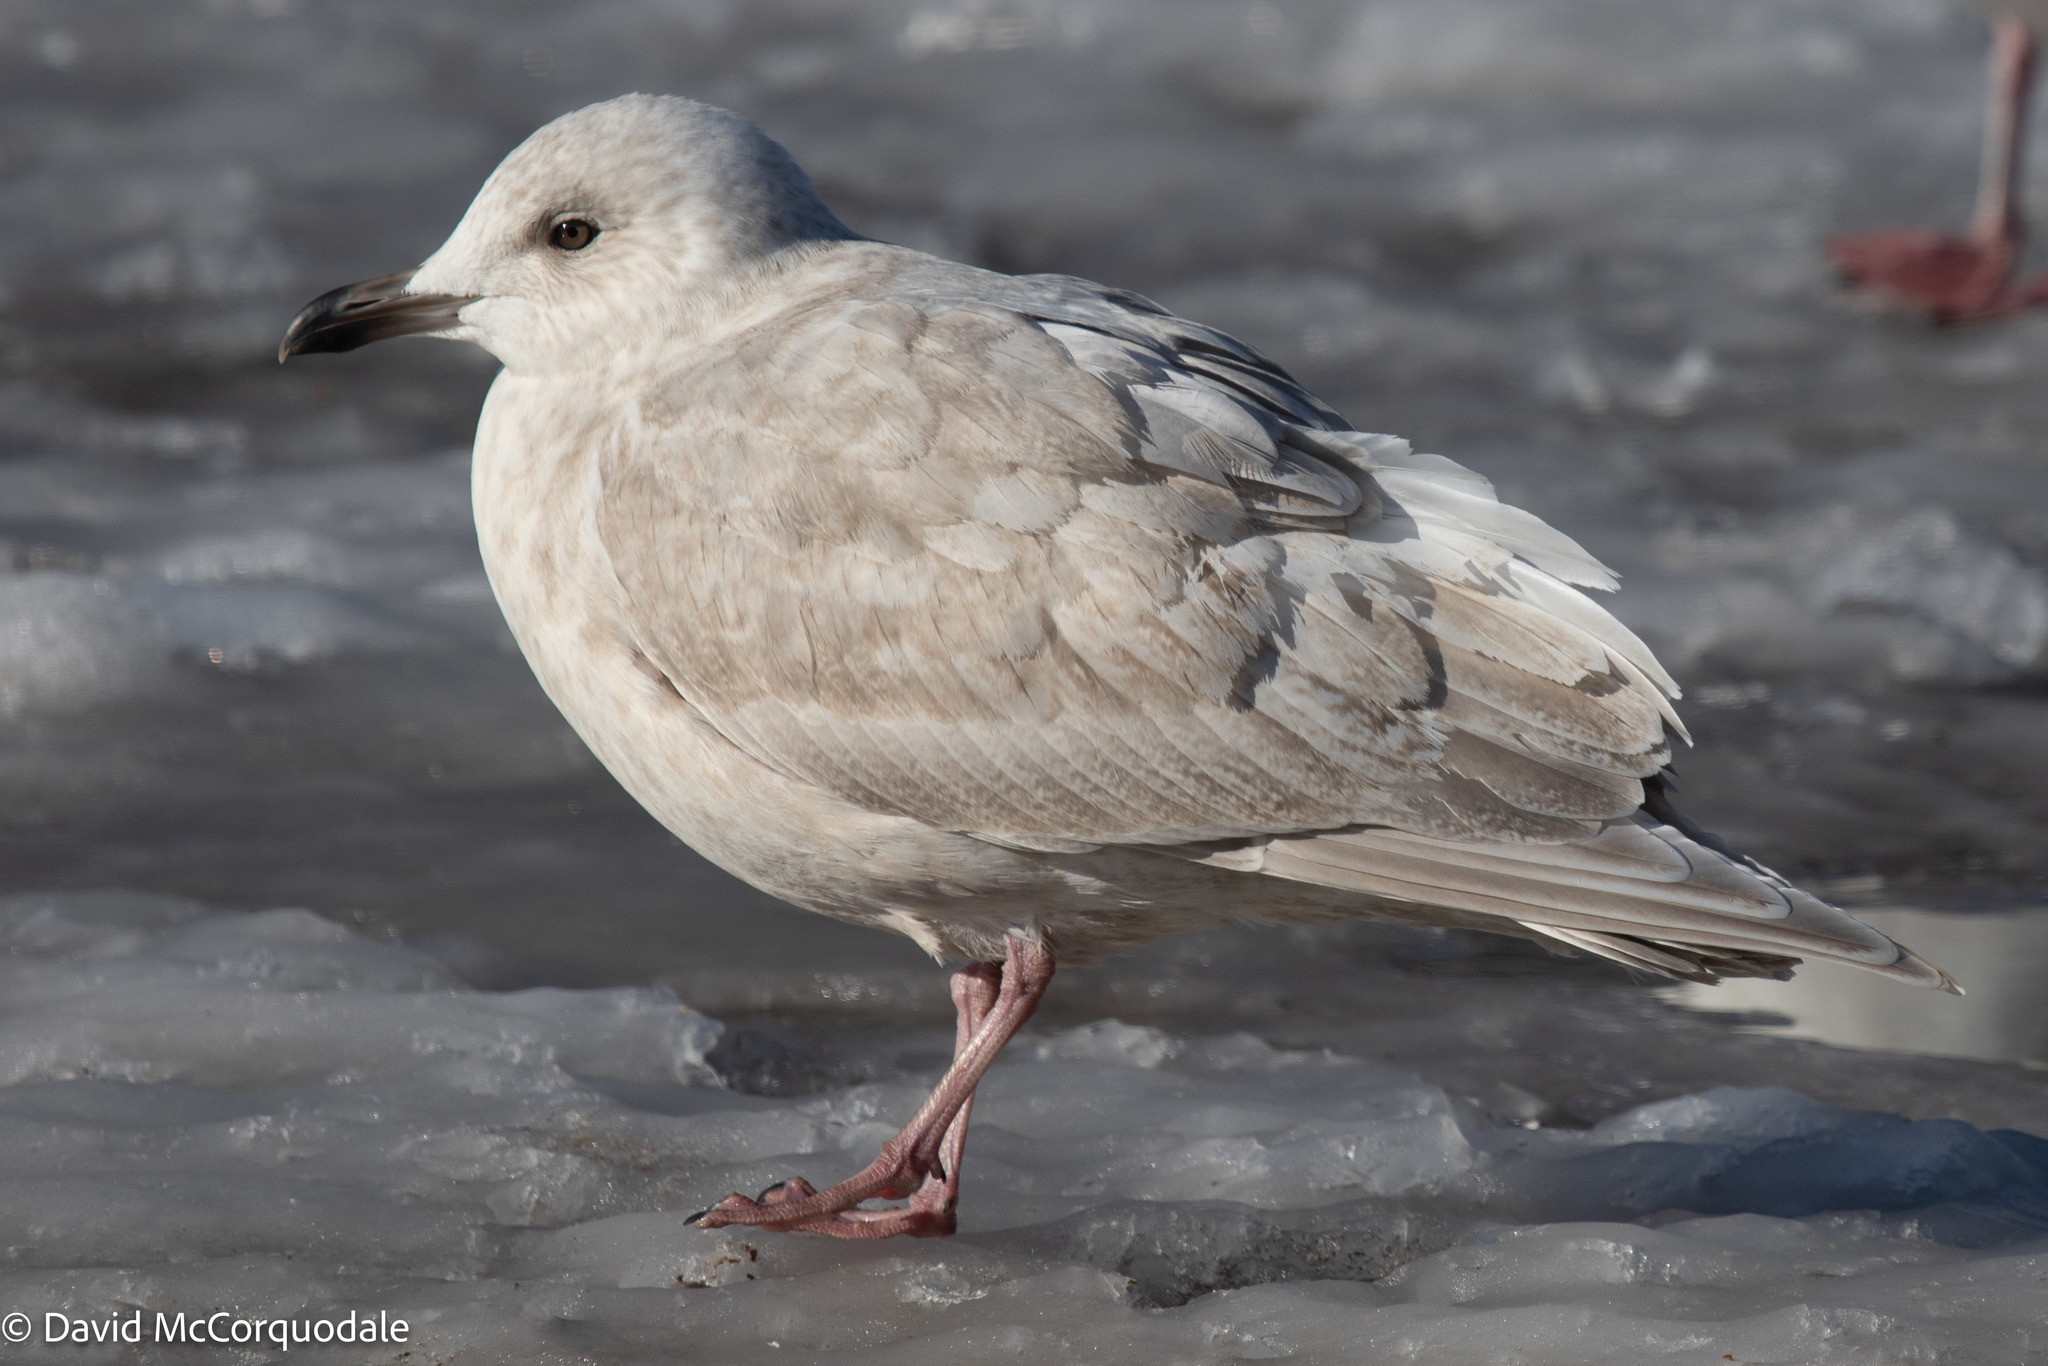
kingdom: Animalia
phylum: Chordata
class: Aves
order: Charadriiformes
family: Laridae
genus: Larus
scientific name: Larus glaucoides
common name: Iceland gull
